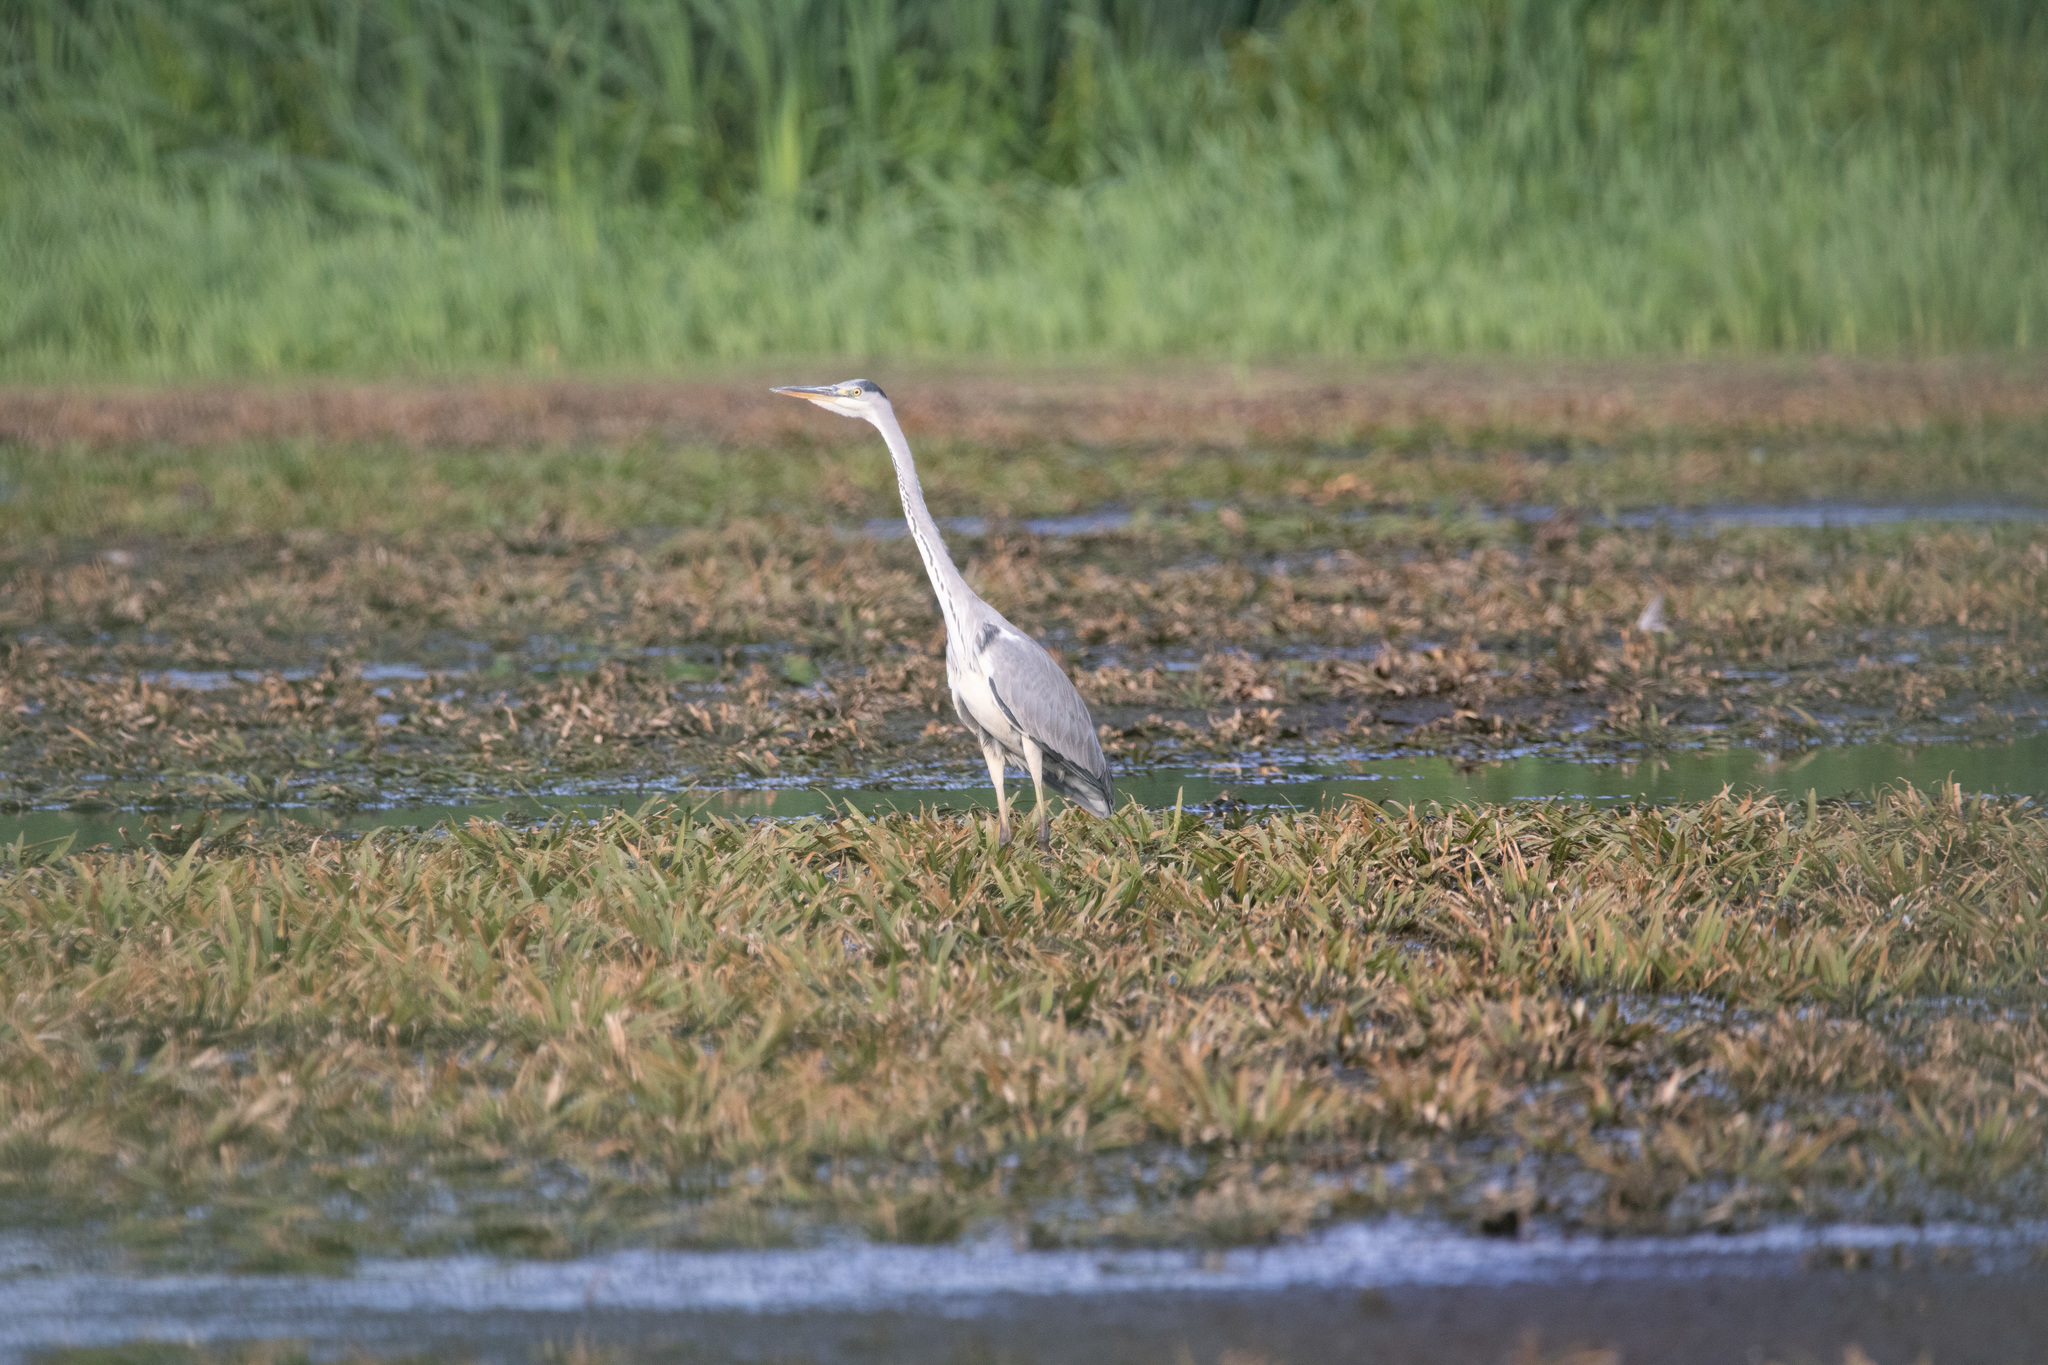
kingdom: Animalia
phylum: Chordata
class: Aves
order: Pelecaniformes
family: Ardeidae
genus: Ardea
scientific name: Ardea cinerea
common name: Grey heron
